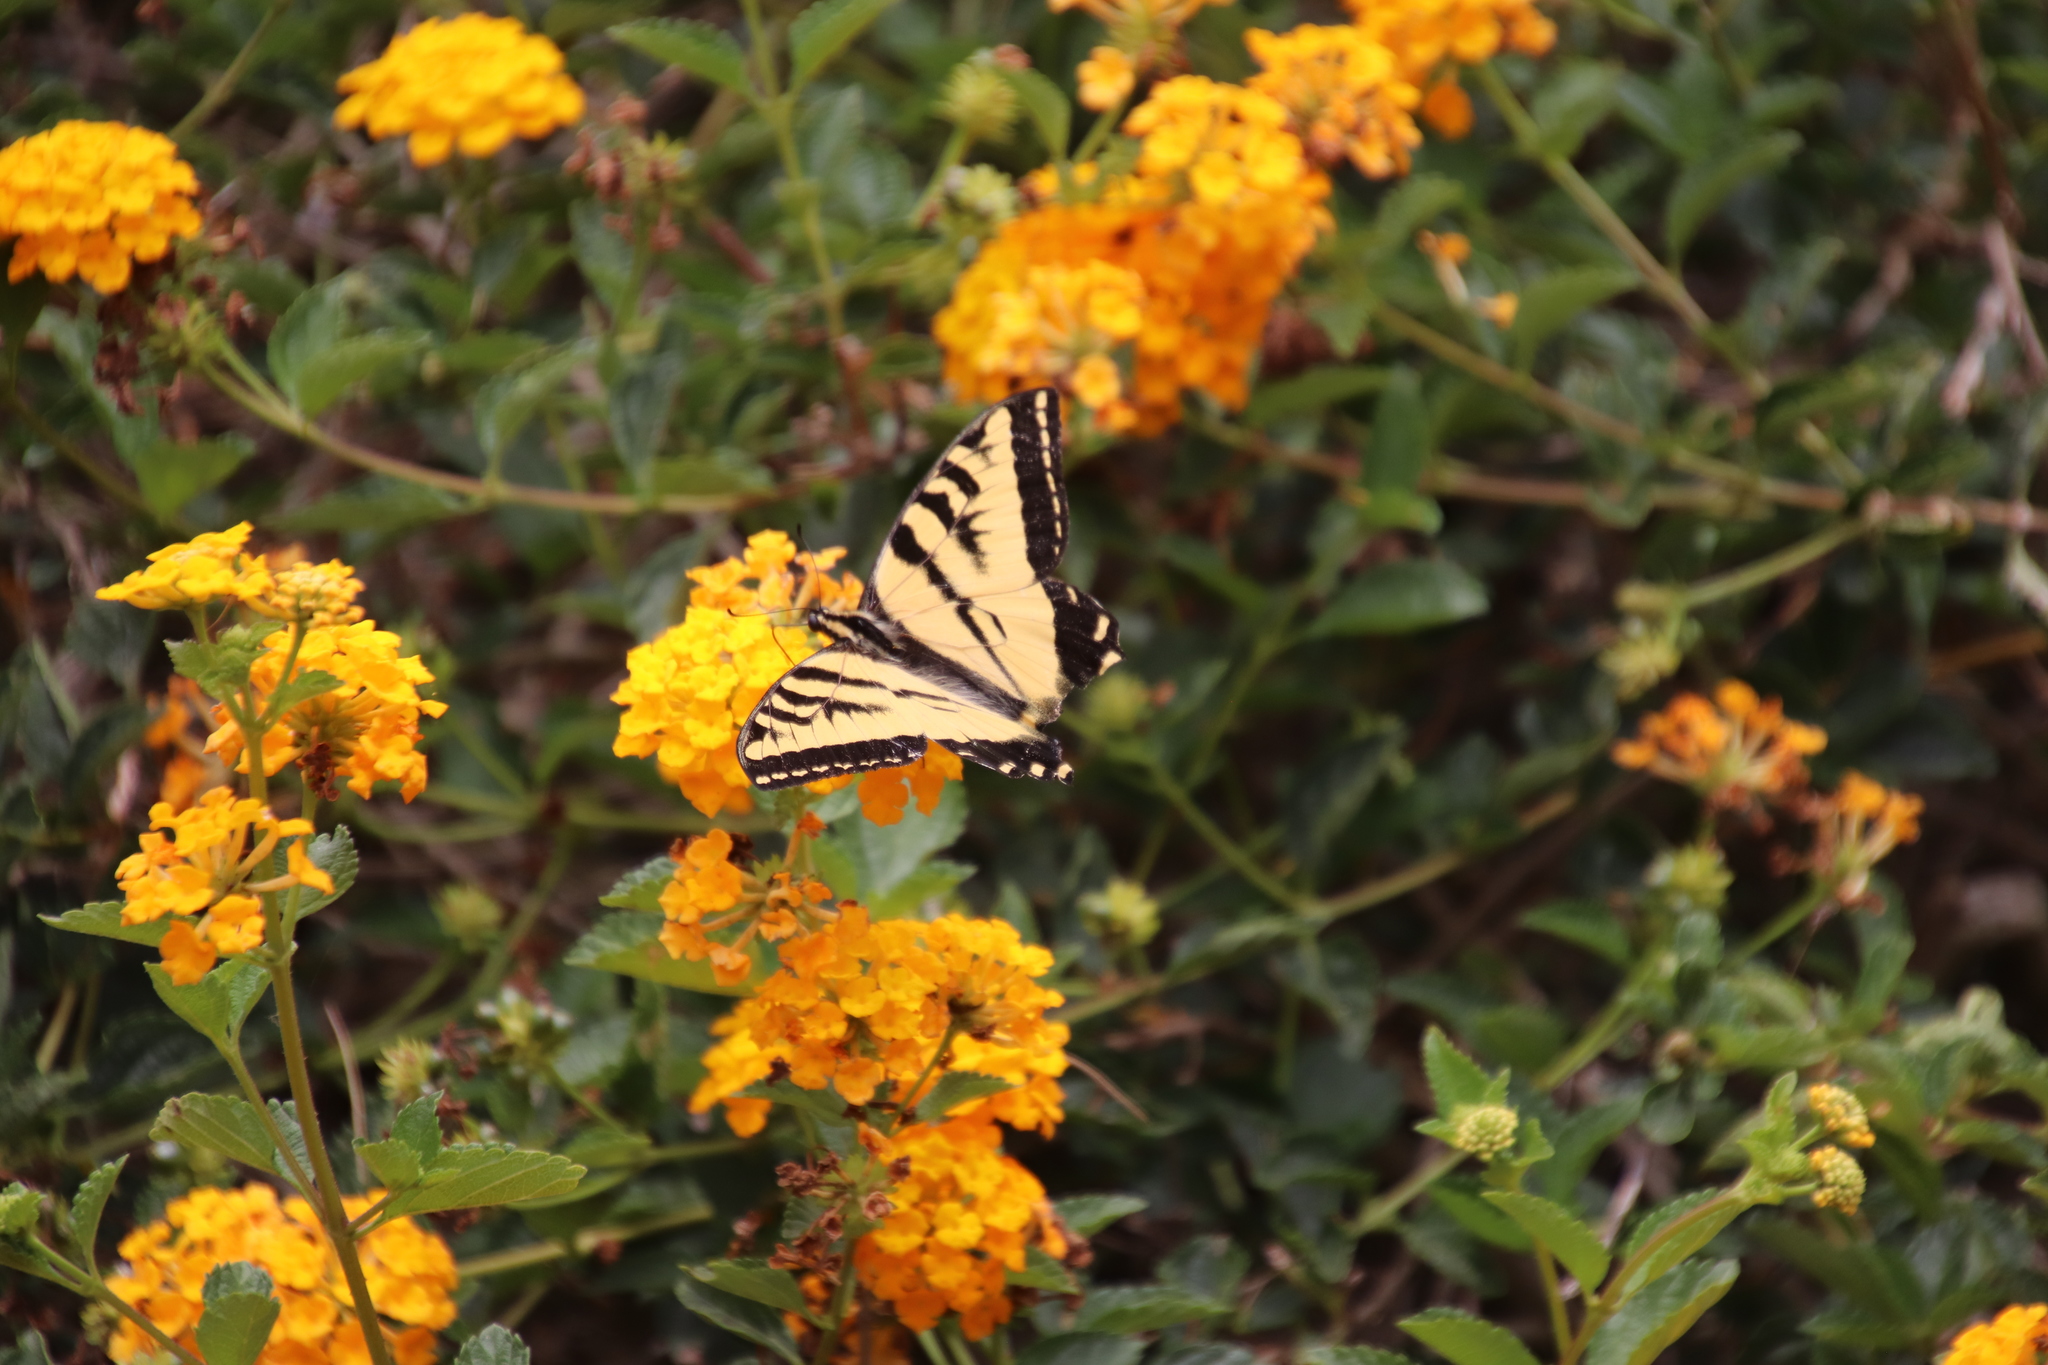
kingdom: Animalia
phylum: Arthropoda
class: Insecta
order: Lepidoptera
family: Papilionidae
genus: Papilio
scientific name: Papilio rutulus
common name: Western tiger swallowtail
